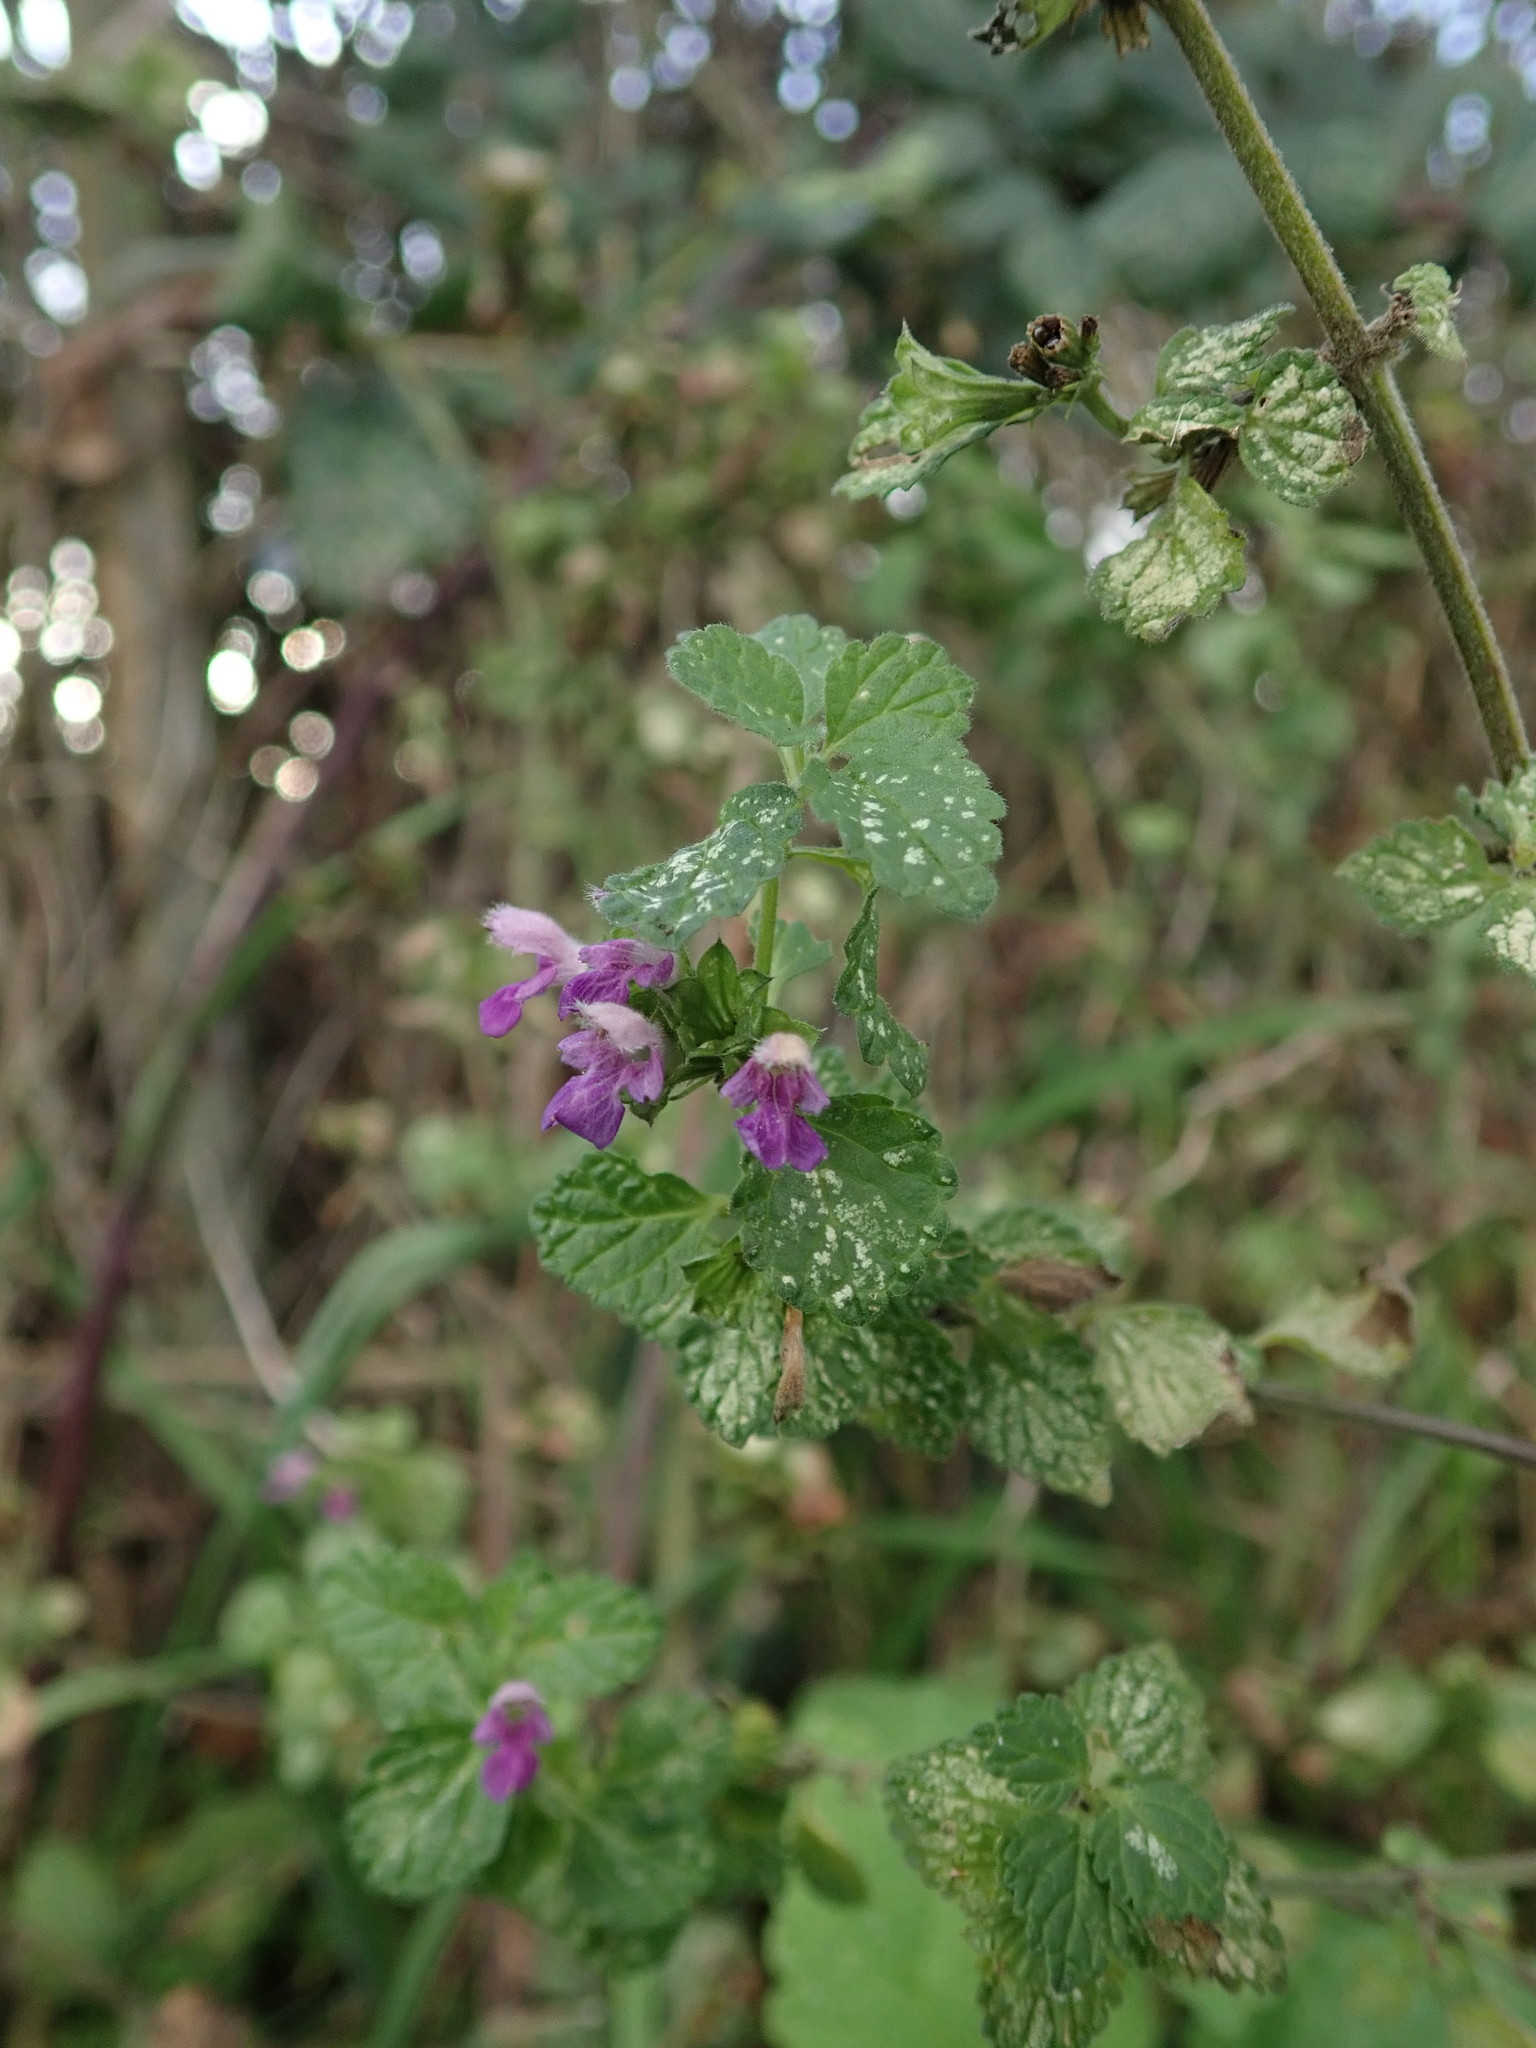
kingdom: Plantae
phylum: Tracheophyta
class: Magnoliopsida
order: Lamiales
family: Lamiaceae
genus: Ballota
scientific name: Ballota nigra
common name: Black horehound
